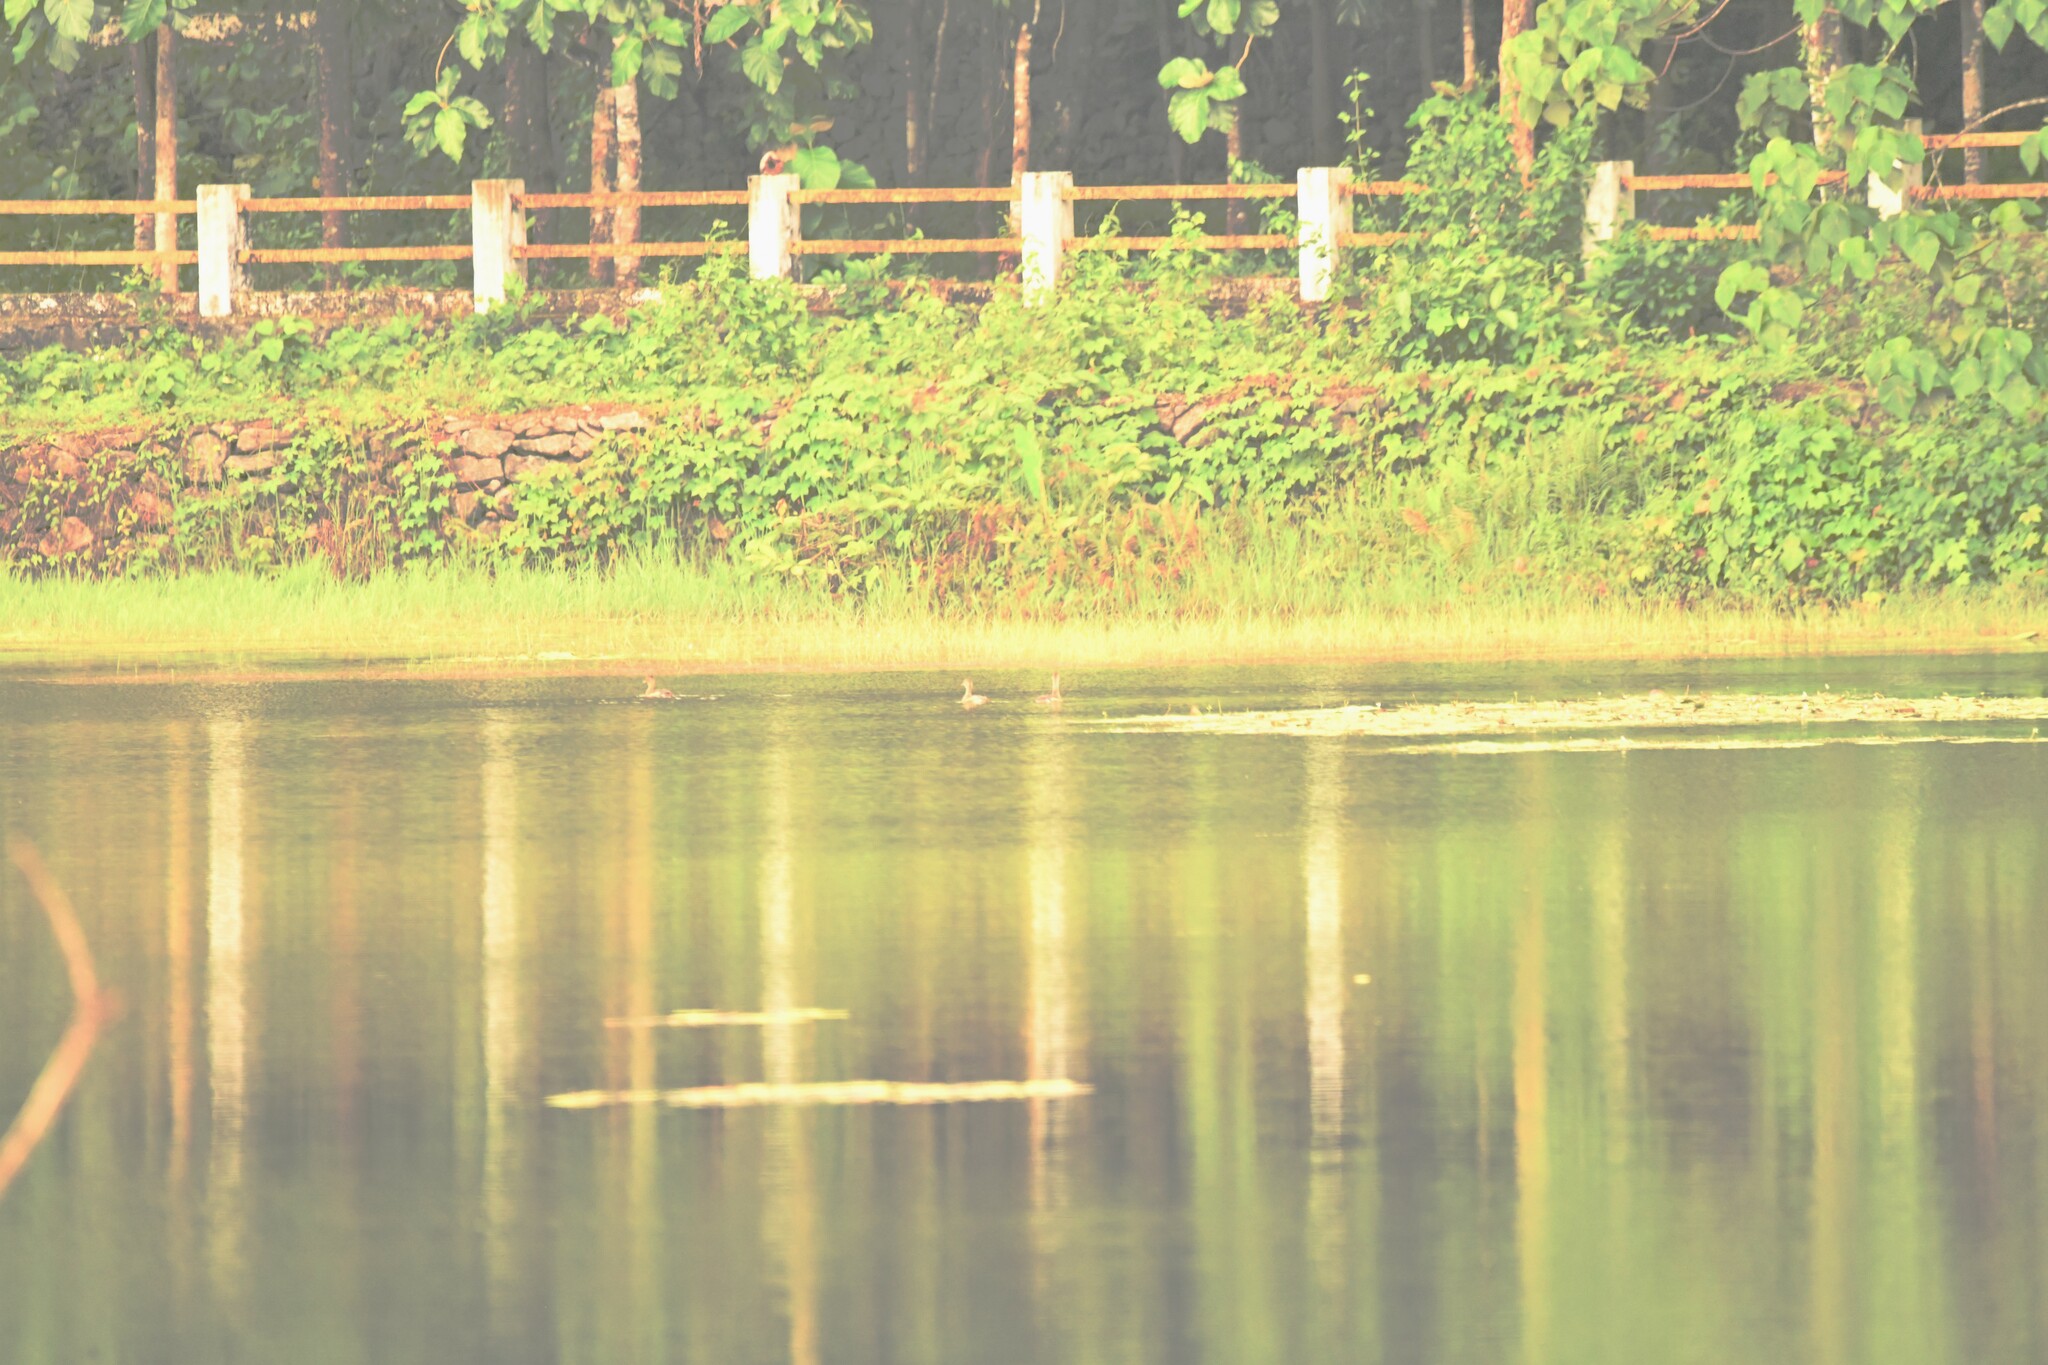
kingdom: Animalia
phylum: Chordata
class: Aves
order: Anseriformes
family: Anatidae
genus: Dendrocygna
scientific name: Dendrocygna javanica
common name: Lesser whistling-duck
